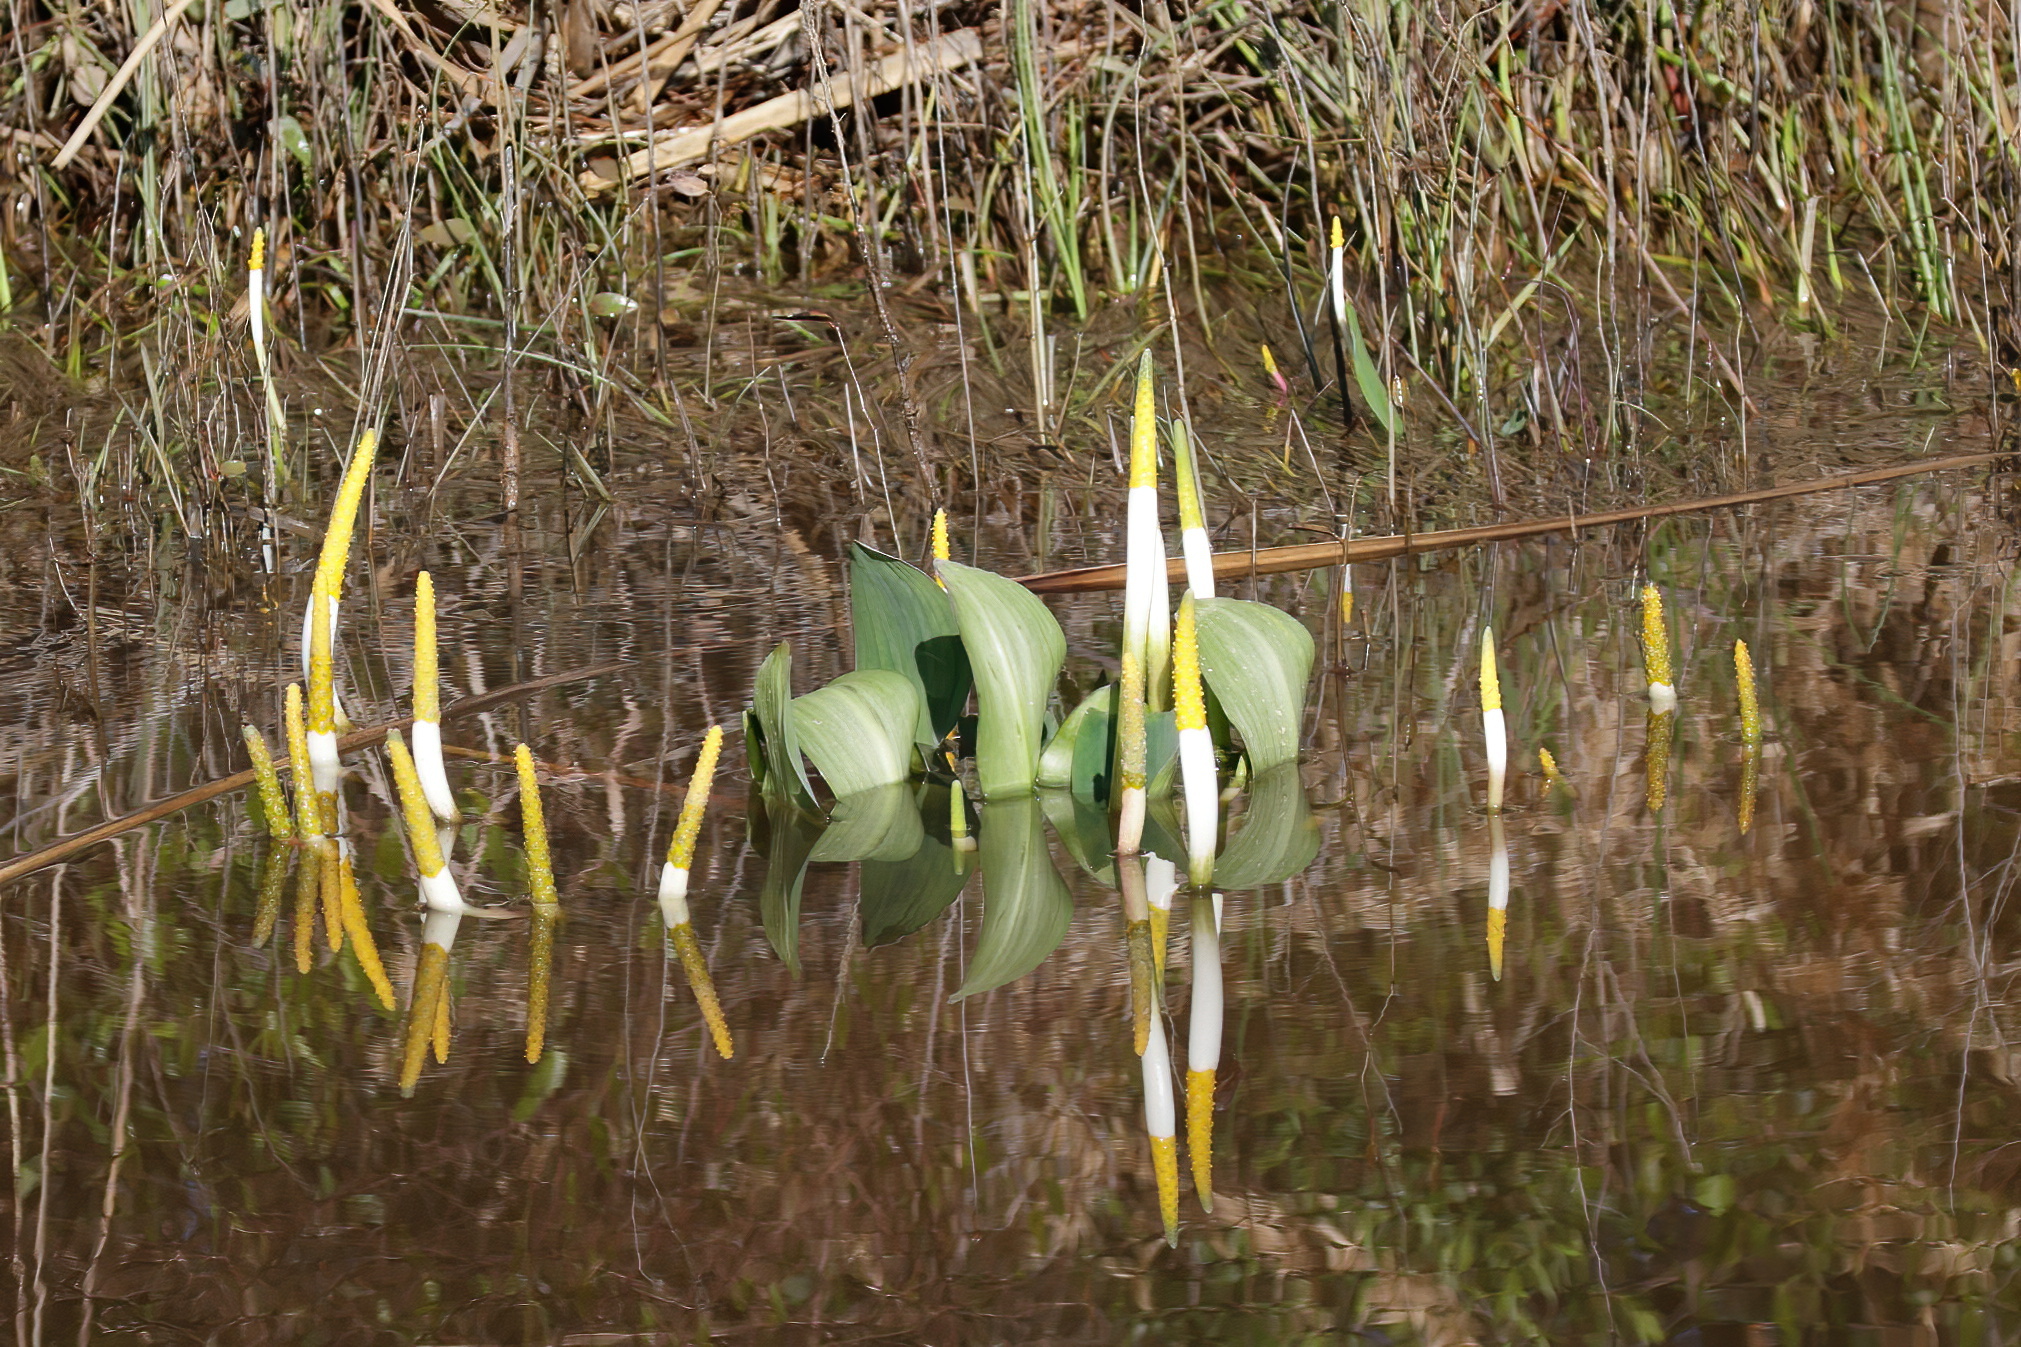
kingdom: Plantae
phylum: Tracheophyta
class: Liliopsida
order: Alismatales
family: Araceae
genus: Orontium
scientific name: Orontium aquaticum
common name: Golden-club
